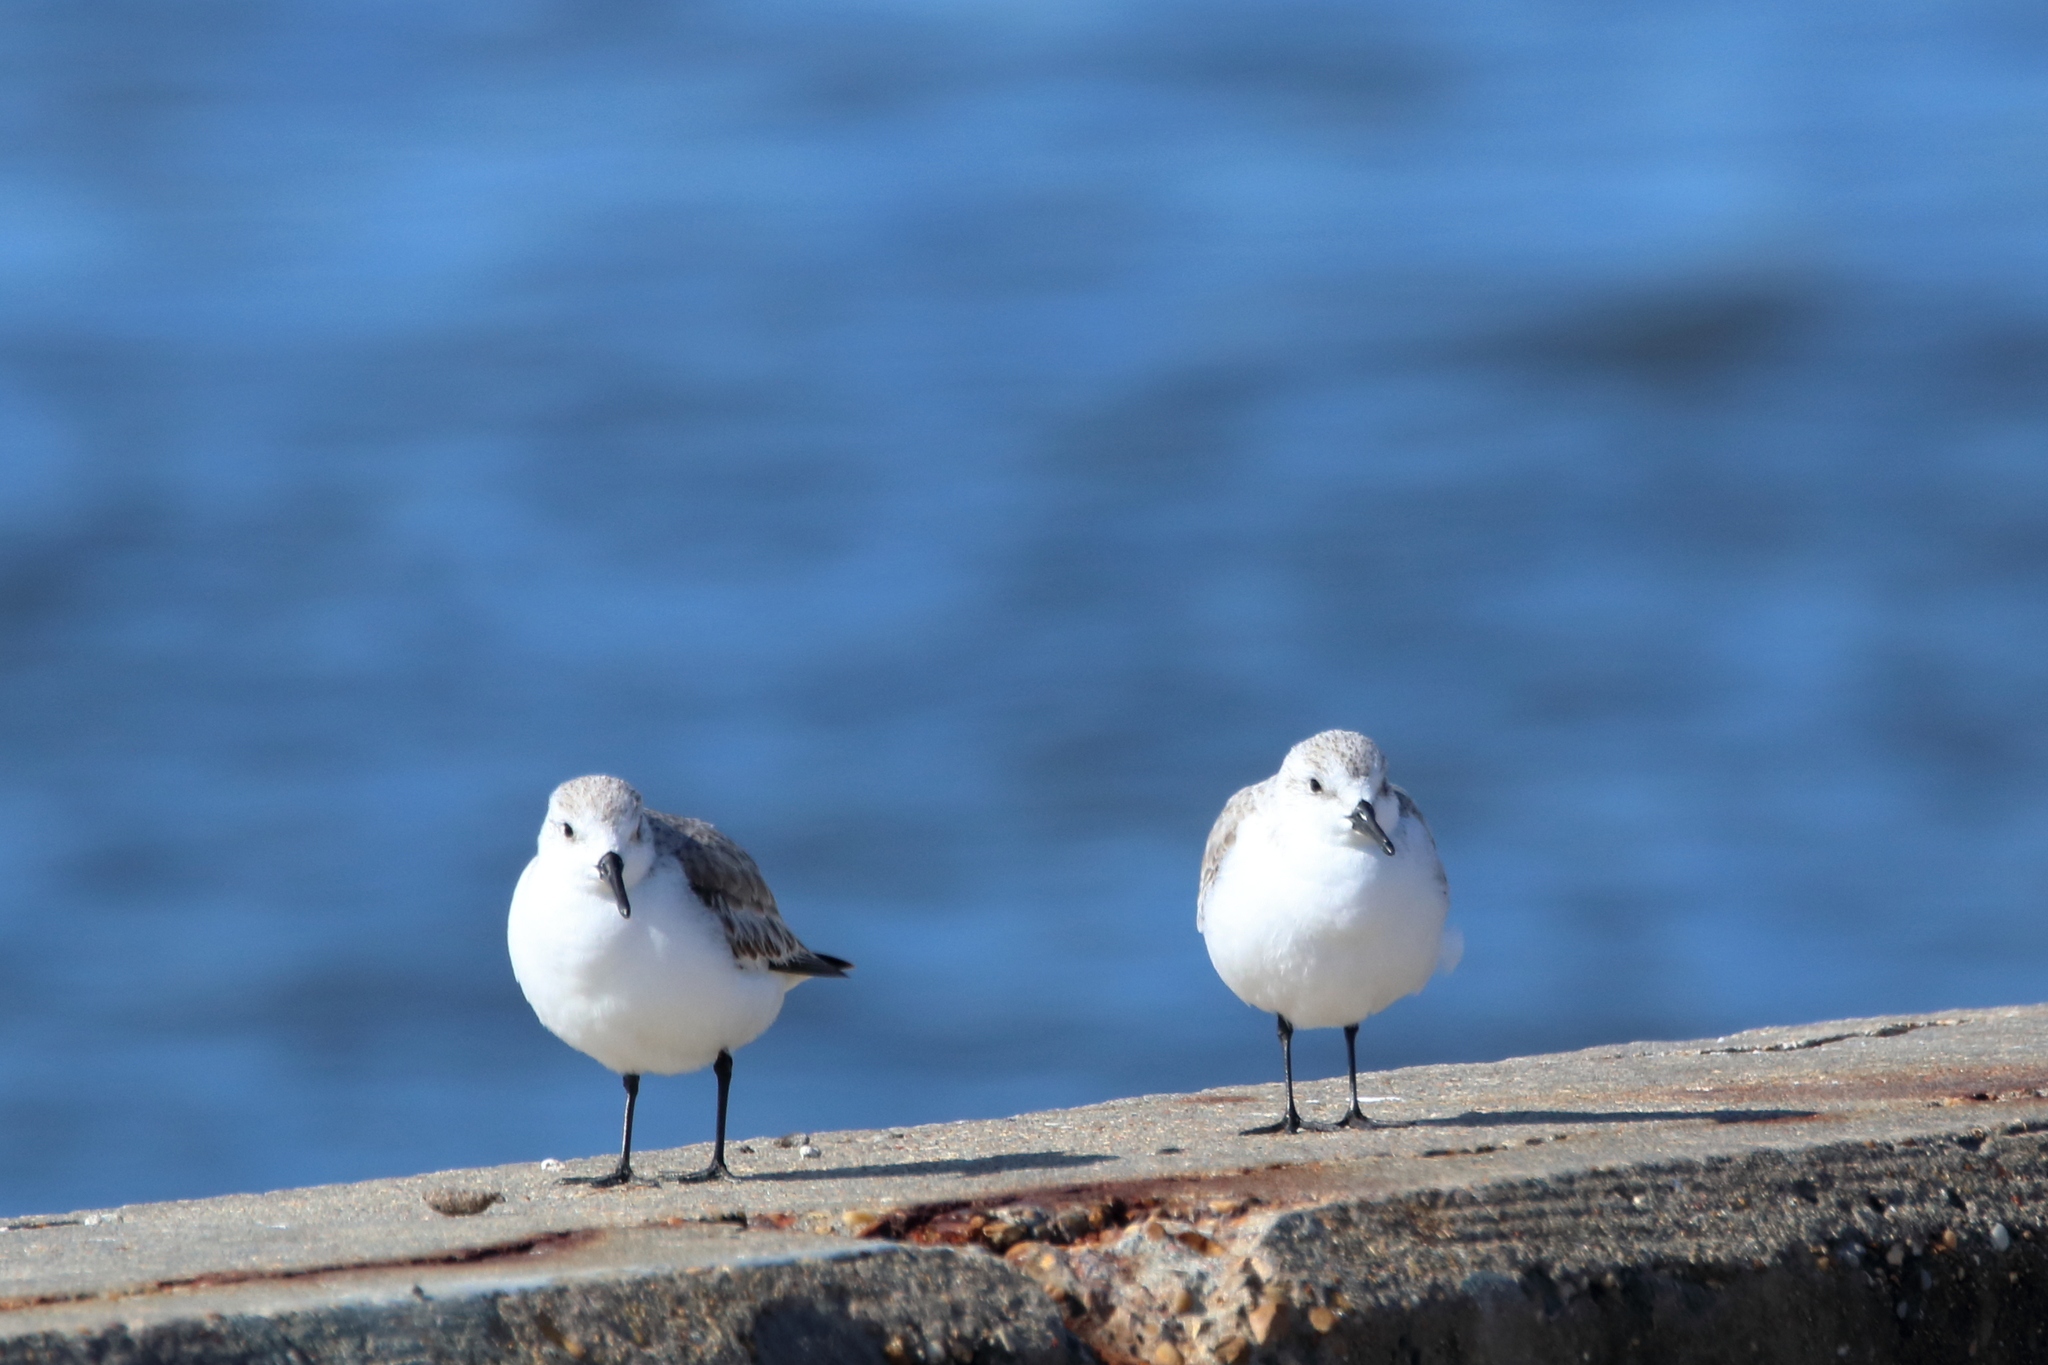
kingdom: Animalia
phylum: Chordata
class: Aves
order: Charadriiformes
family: Scolopacidae
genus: Calidris
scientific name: Calidris alba
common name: Sanderling
